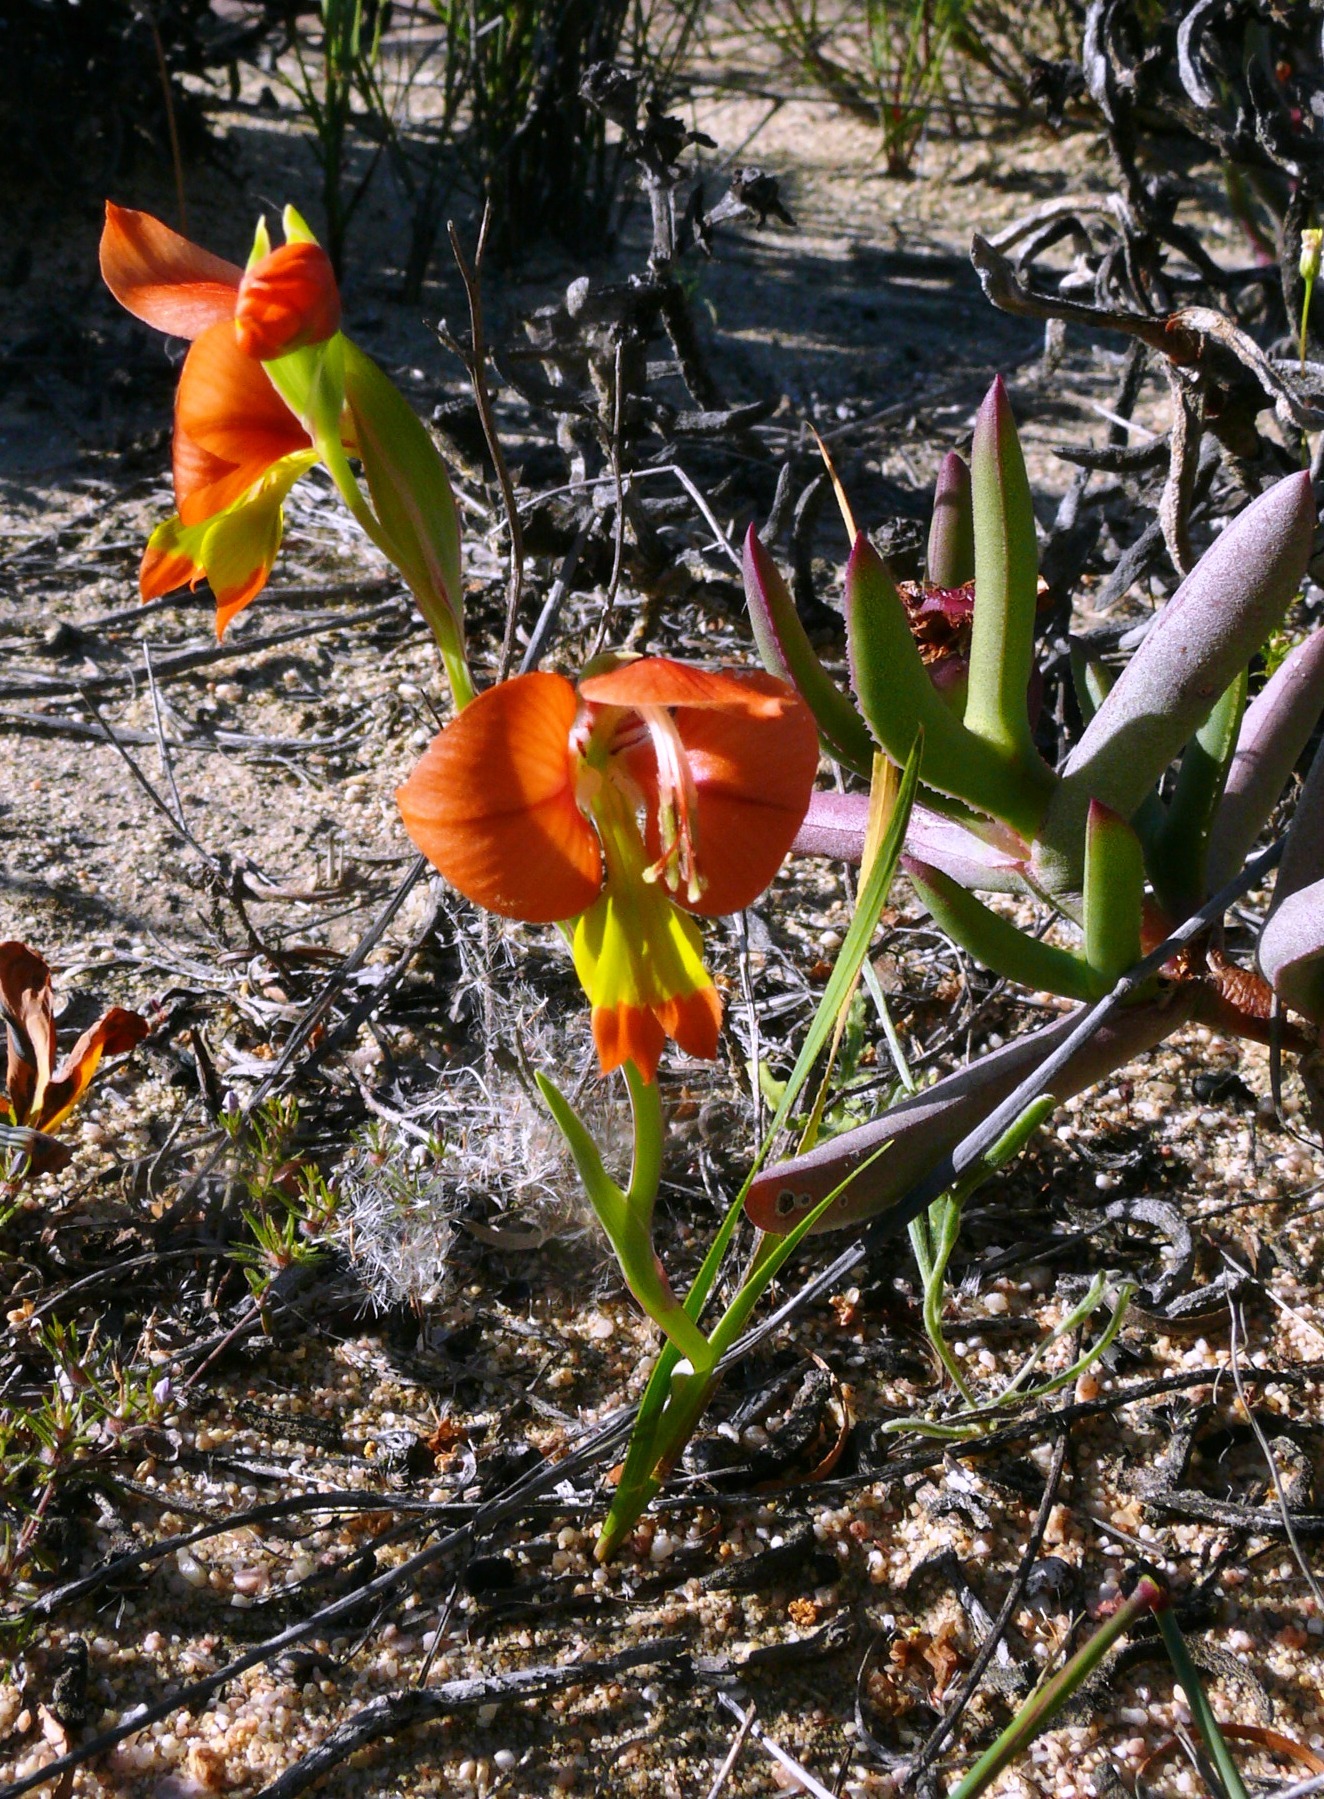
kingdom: Plantae
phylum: Tracheophyta
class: Liliopsida
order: Asparagales
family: Iridaceae
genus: Gladiolus
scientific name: Gladiolus alatus
